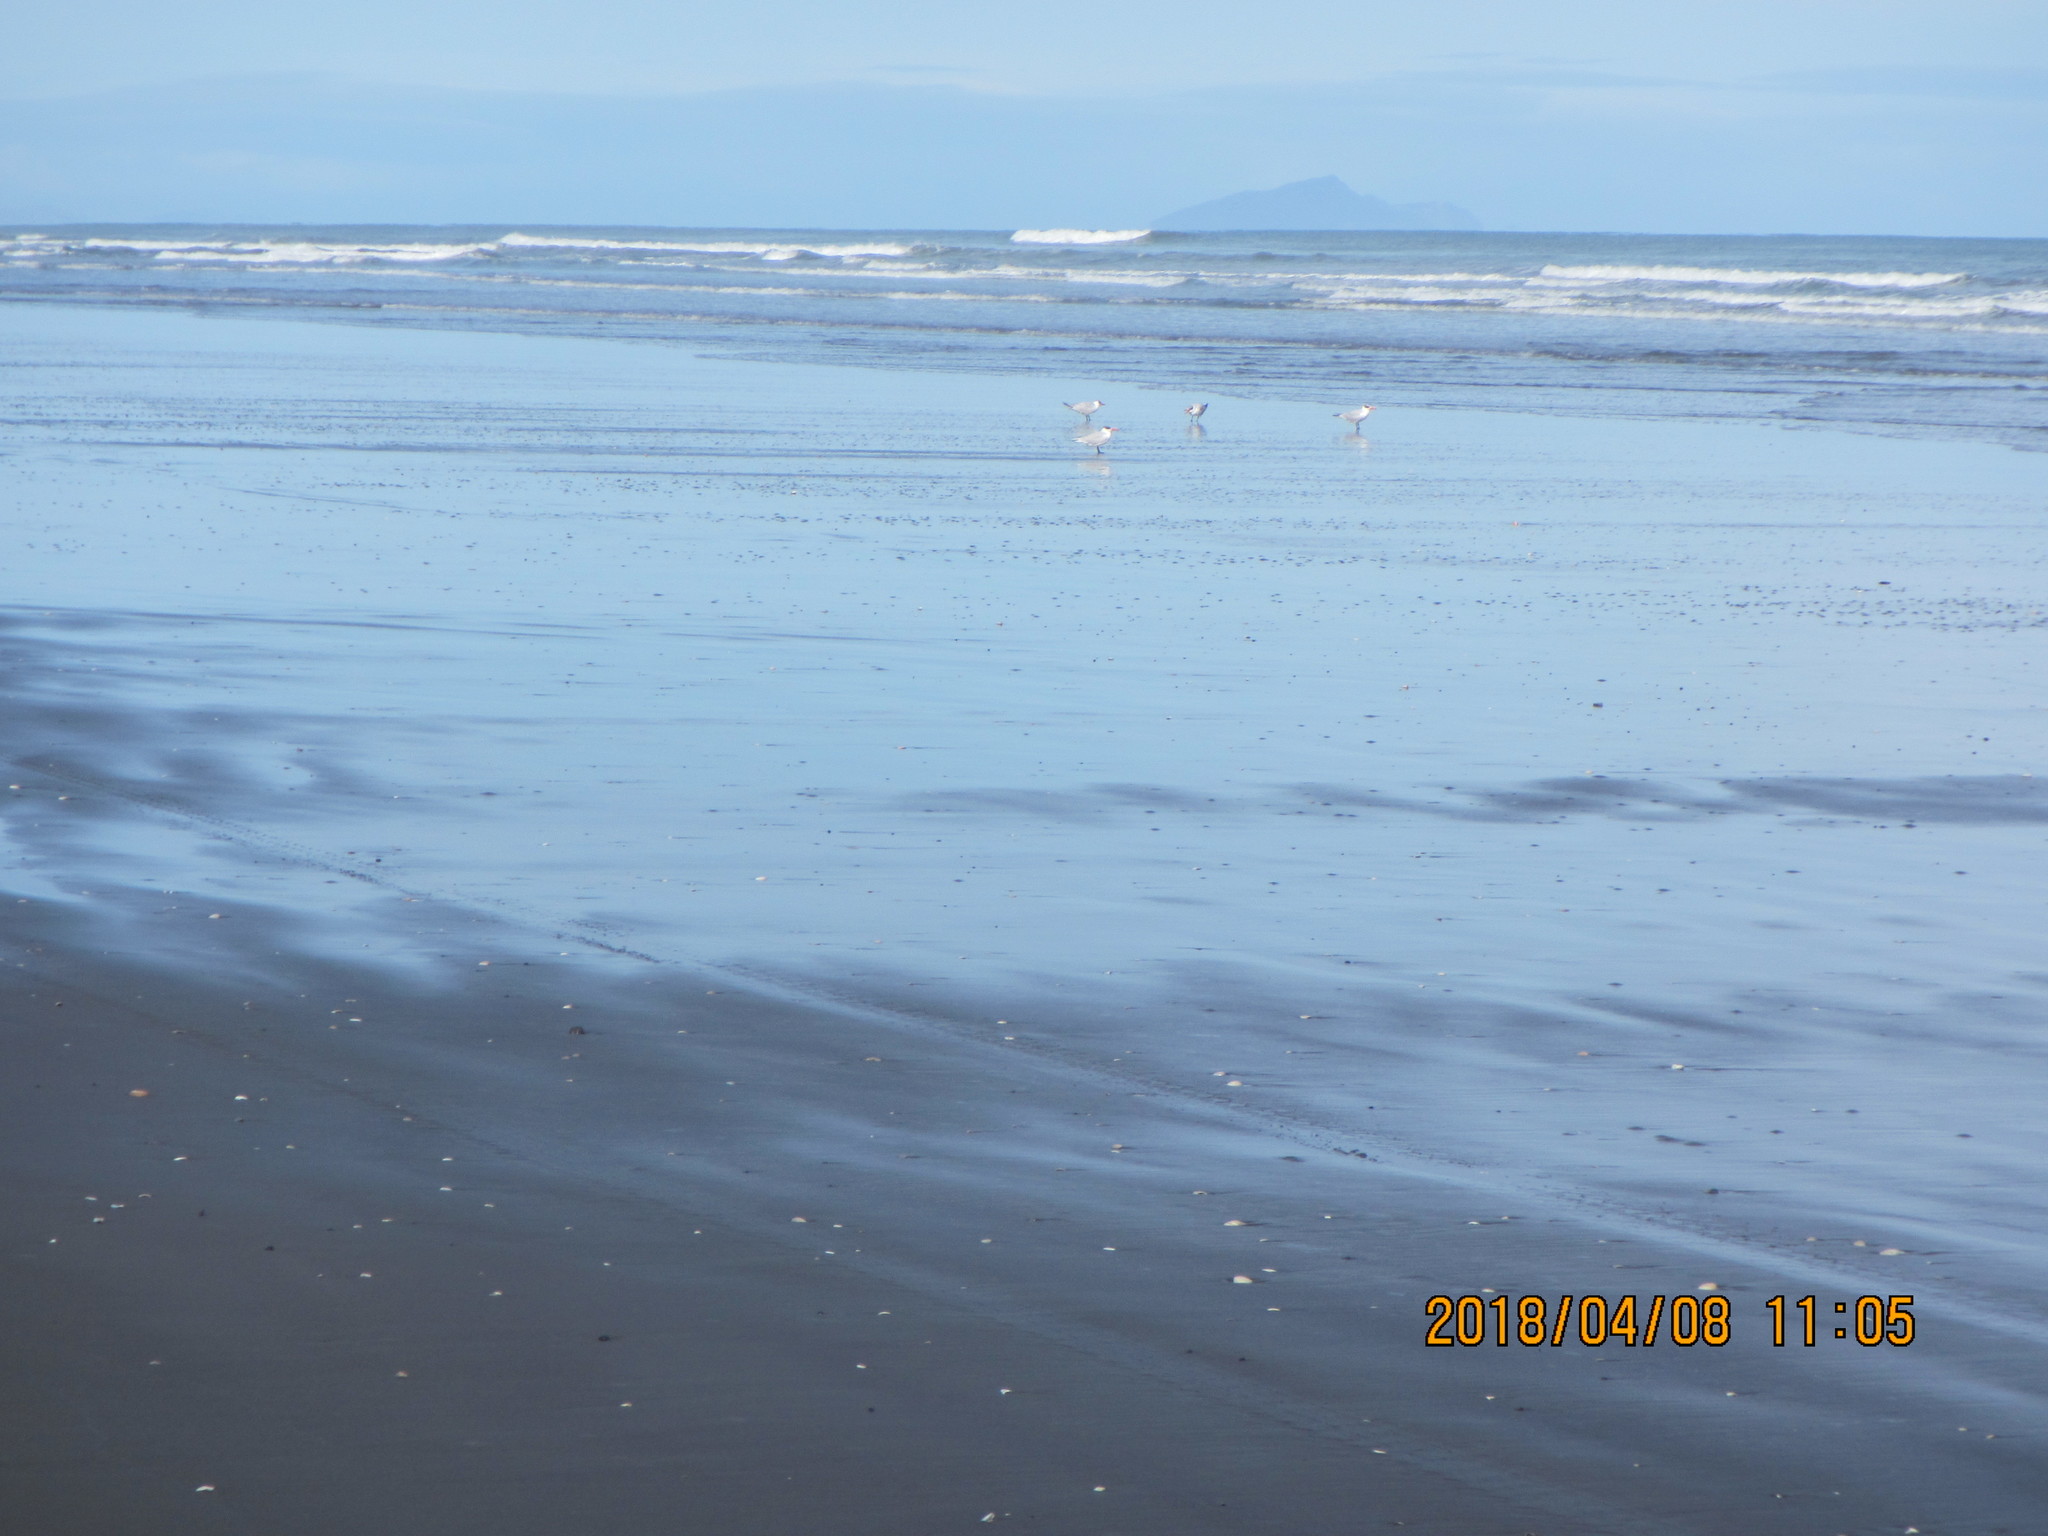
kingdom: Animalia
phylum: Chordata
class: Aves
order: Charadriiformes
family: Laridae
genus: Hydroprogne
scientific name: Hydroprogne caspia
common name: Caspian tern
